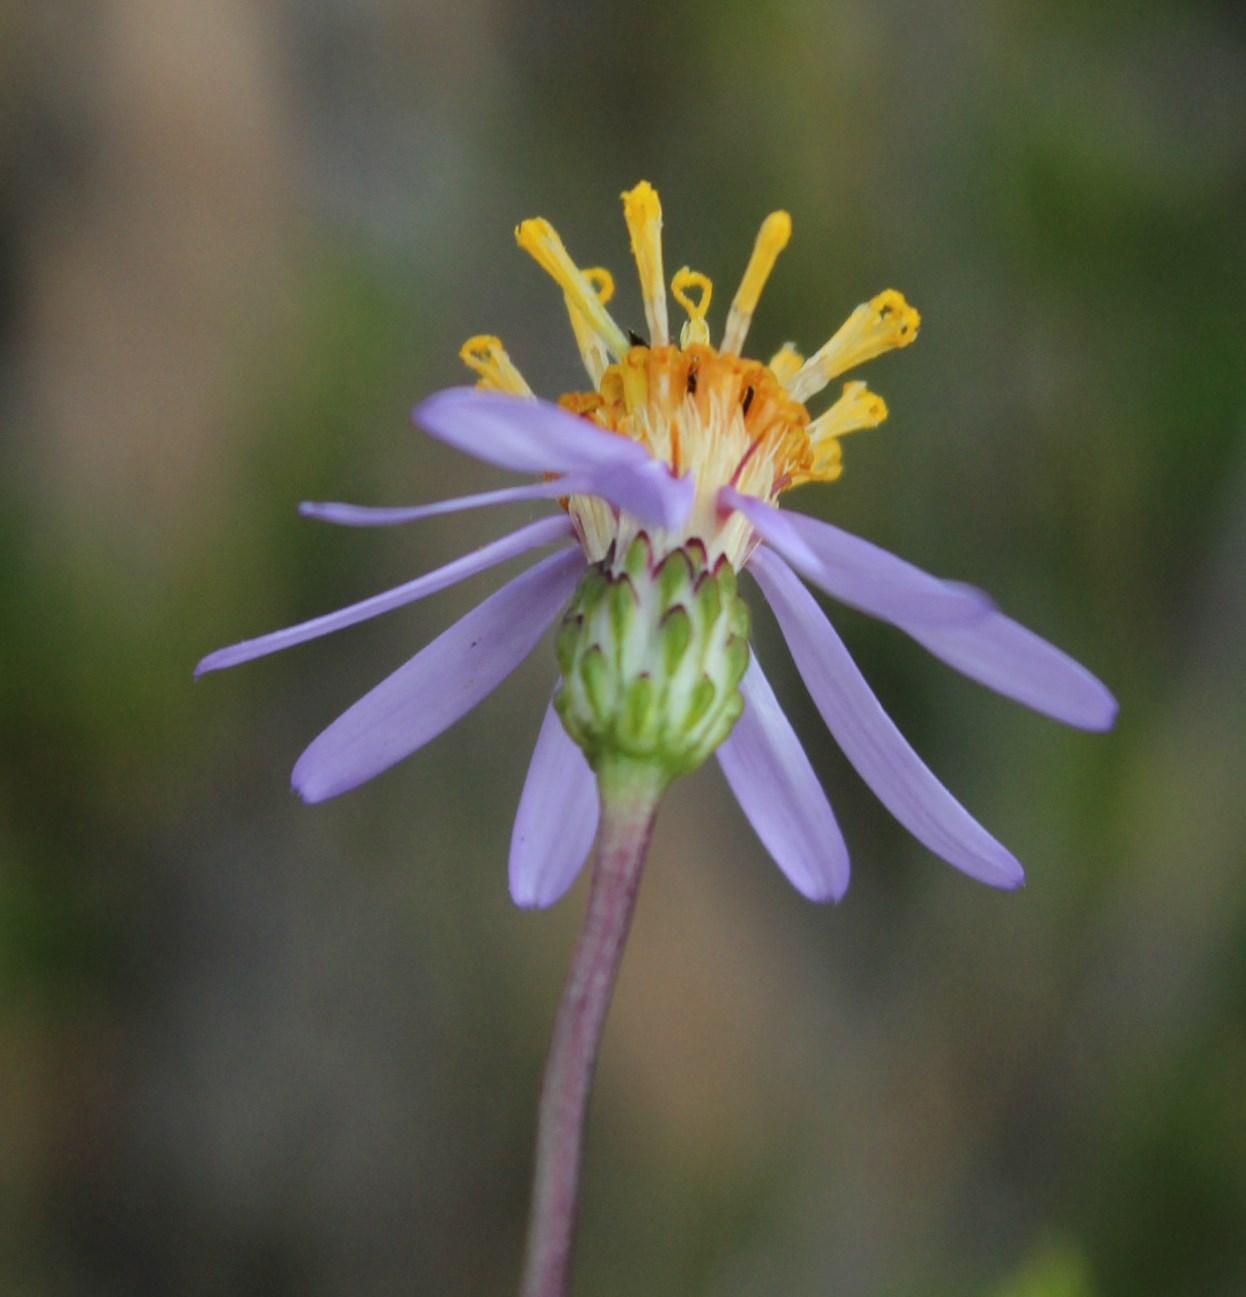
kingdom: Plantae
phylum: Tracheophyta
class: Magnoliopsida
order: Asterales
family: Asteraceae
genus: Felicia
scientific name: Felicia filifolia
